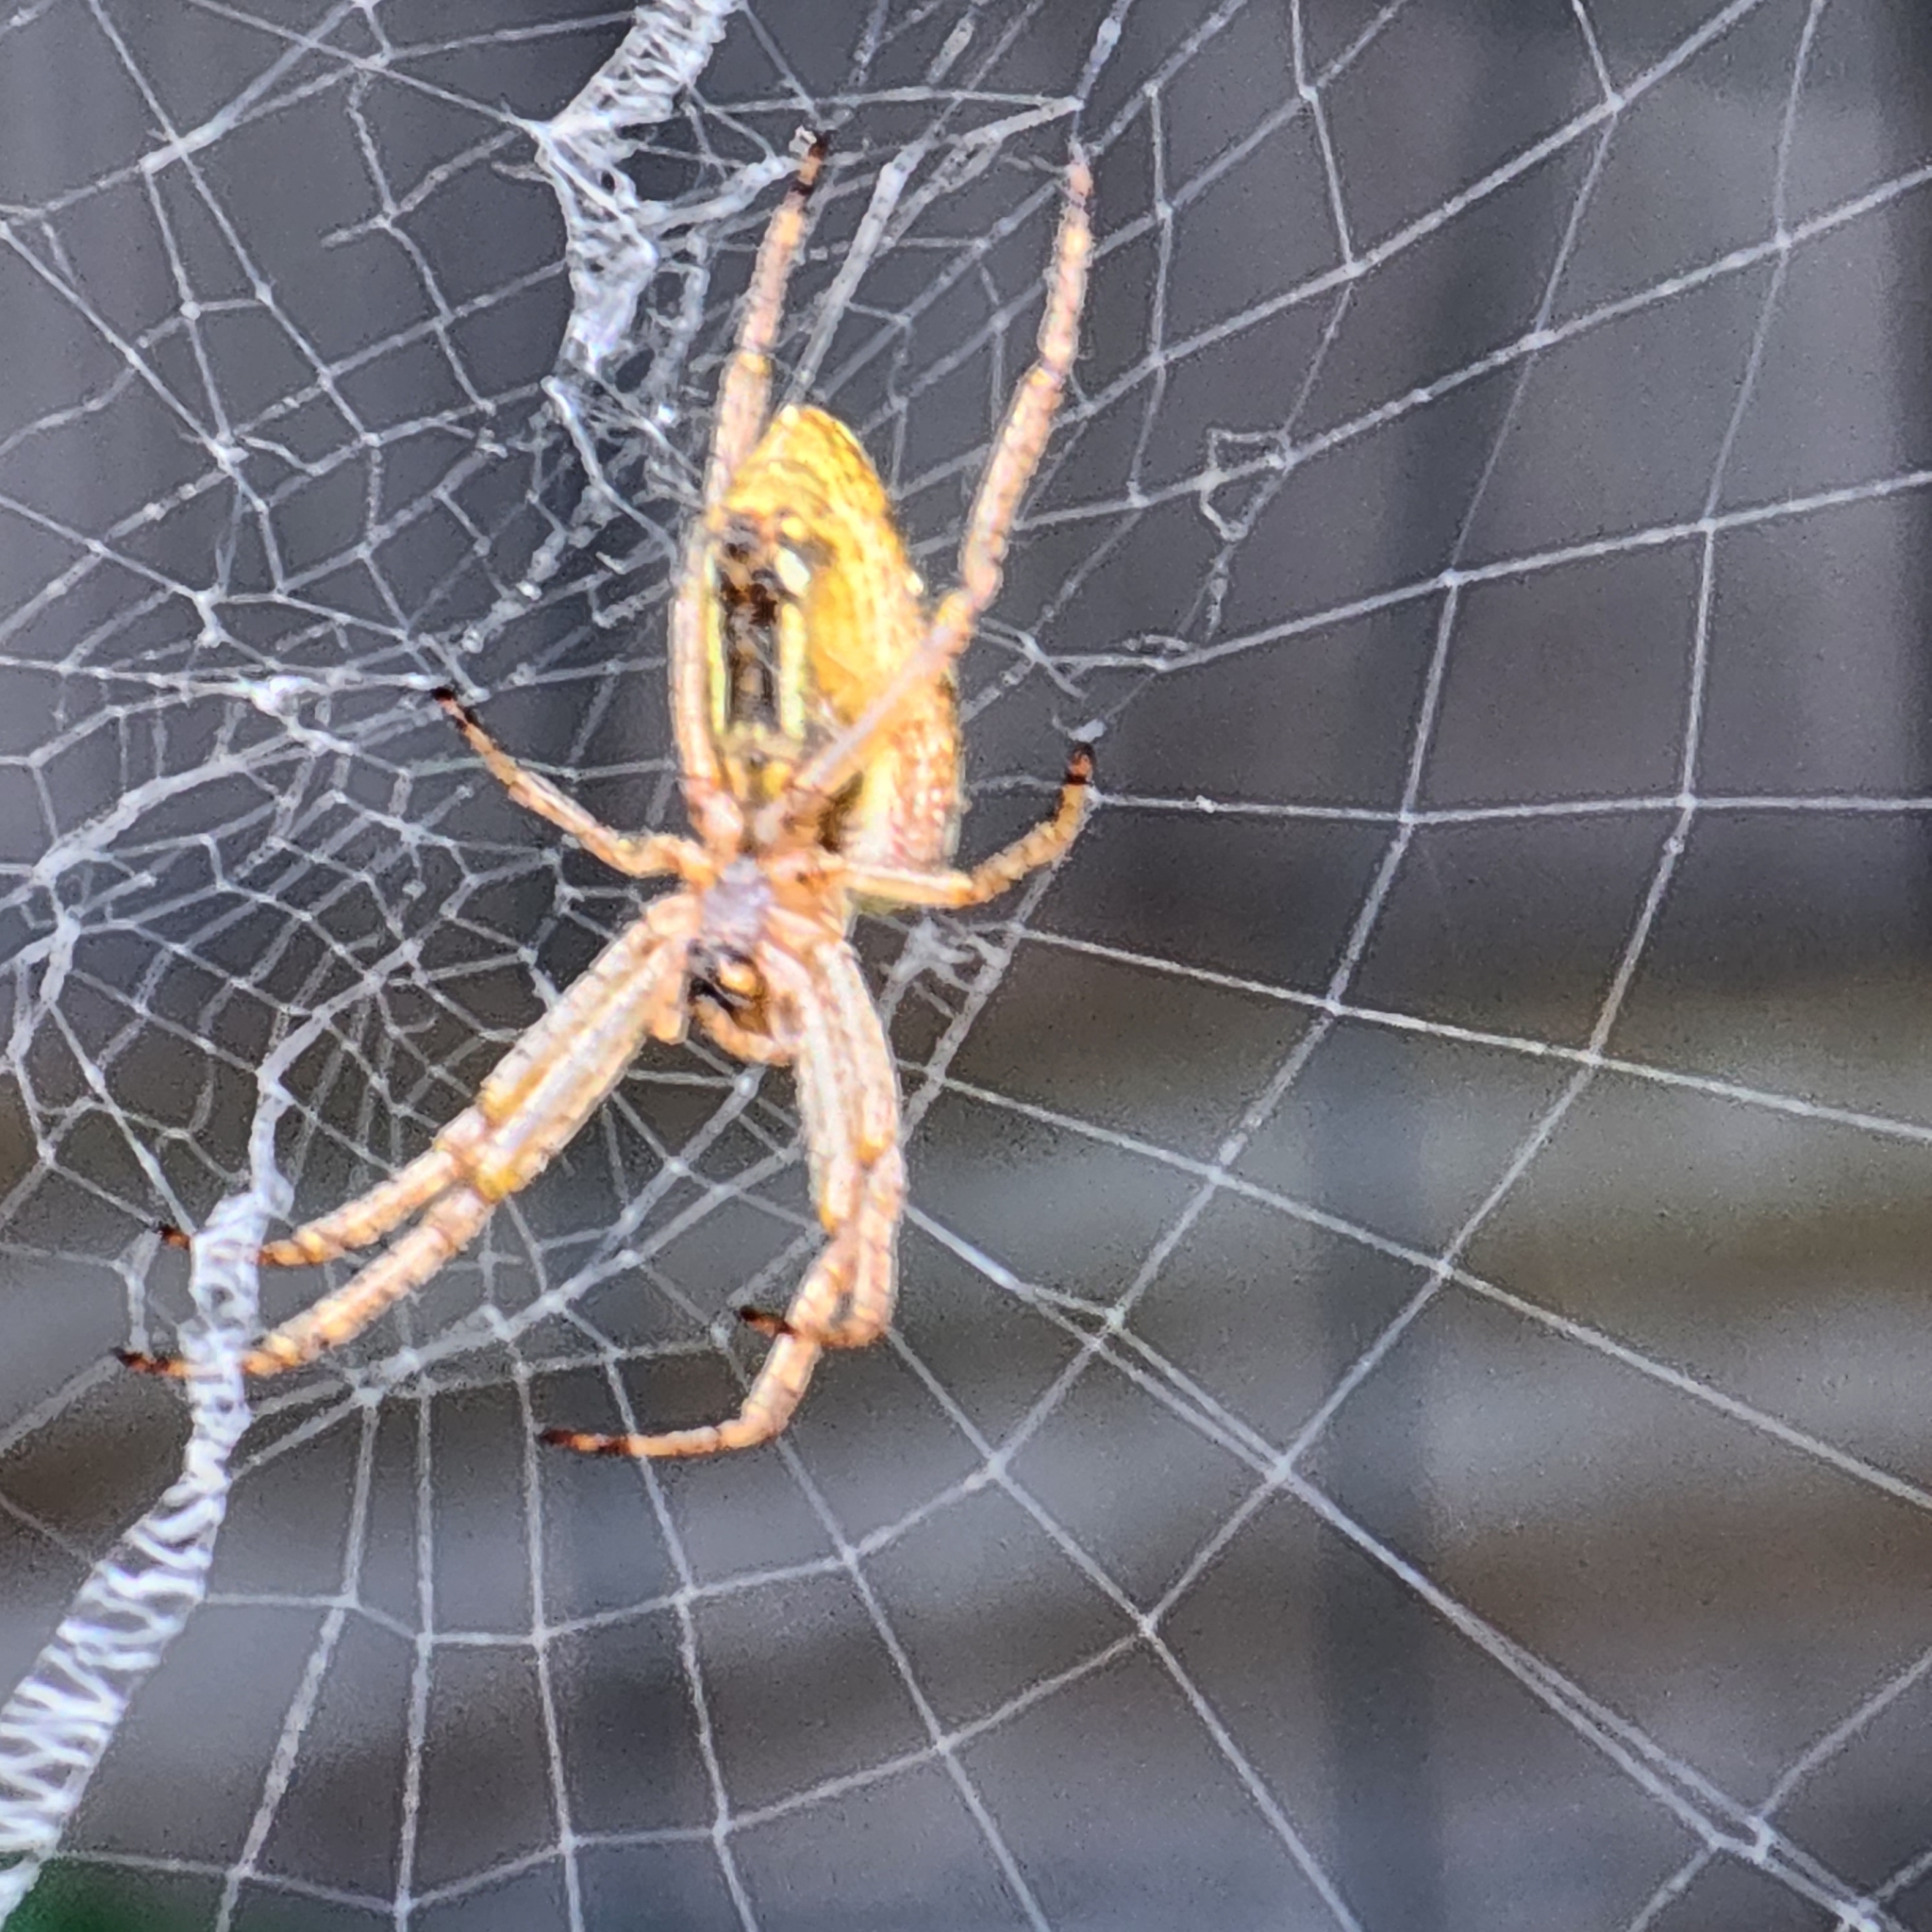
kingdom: Animalia
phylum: Arthropoda
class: Arachnida
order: Araneae
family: Araneidae
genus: Plebs
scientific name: Plebs bradleyi
